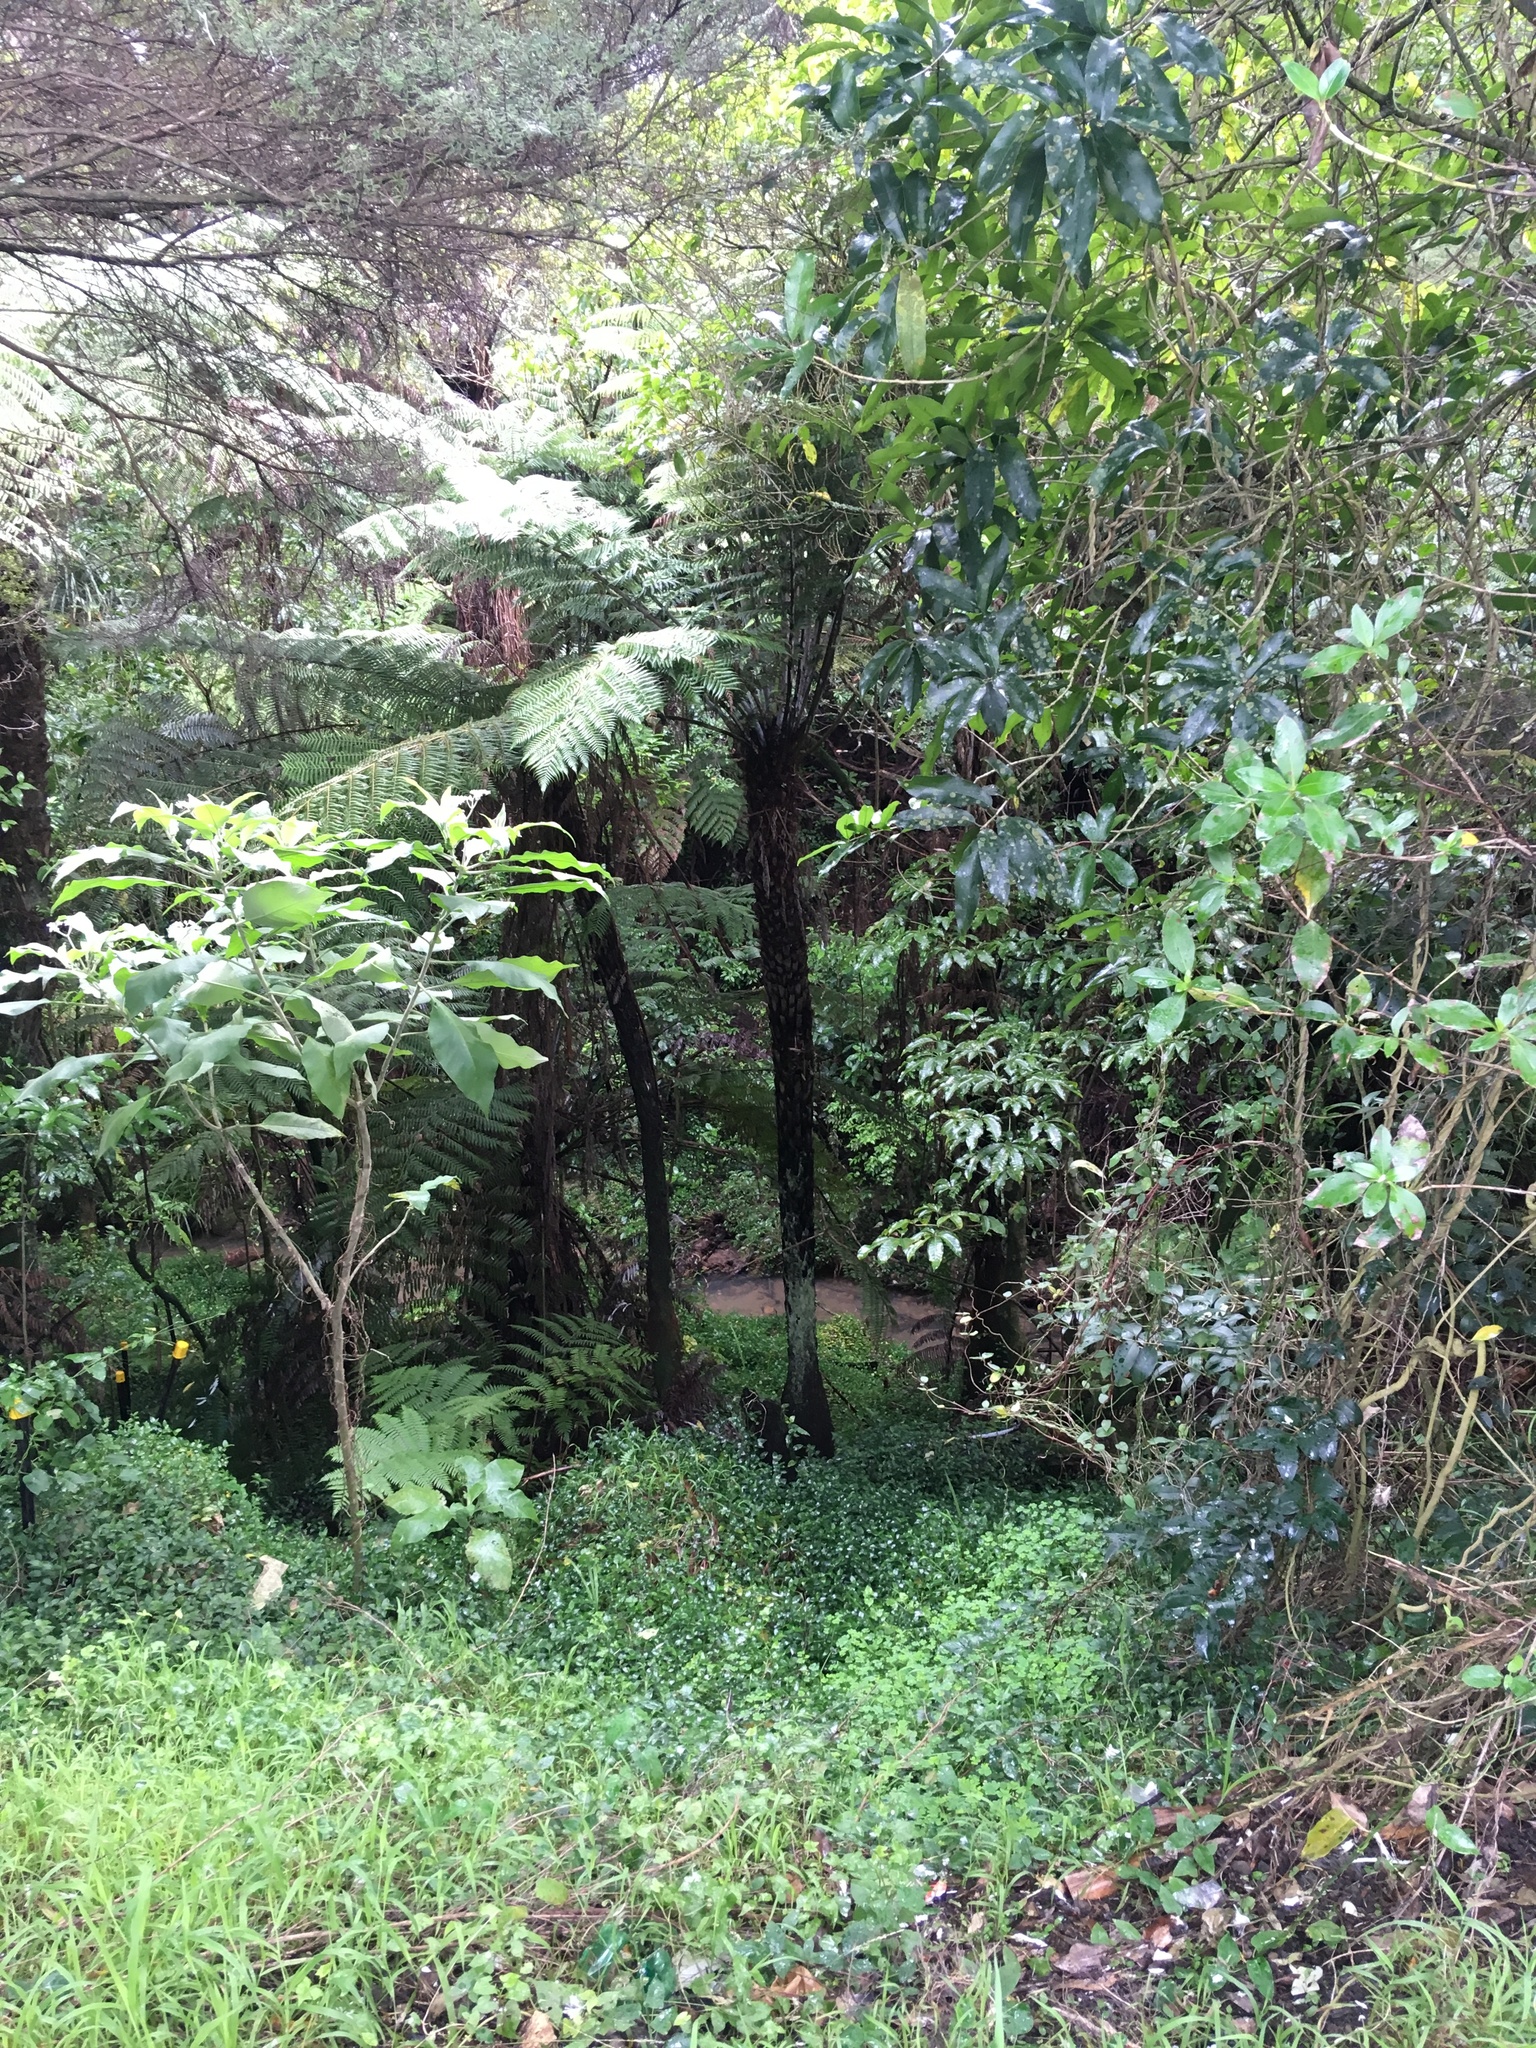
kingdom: Plantae
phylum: Tracheophyta
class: Magnoliopsida
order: Apiales
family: Araliaceae
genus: Schefflera
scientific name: Schefflera digitata
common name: Pate
